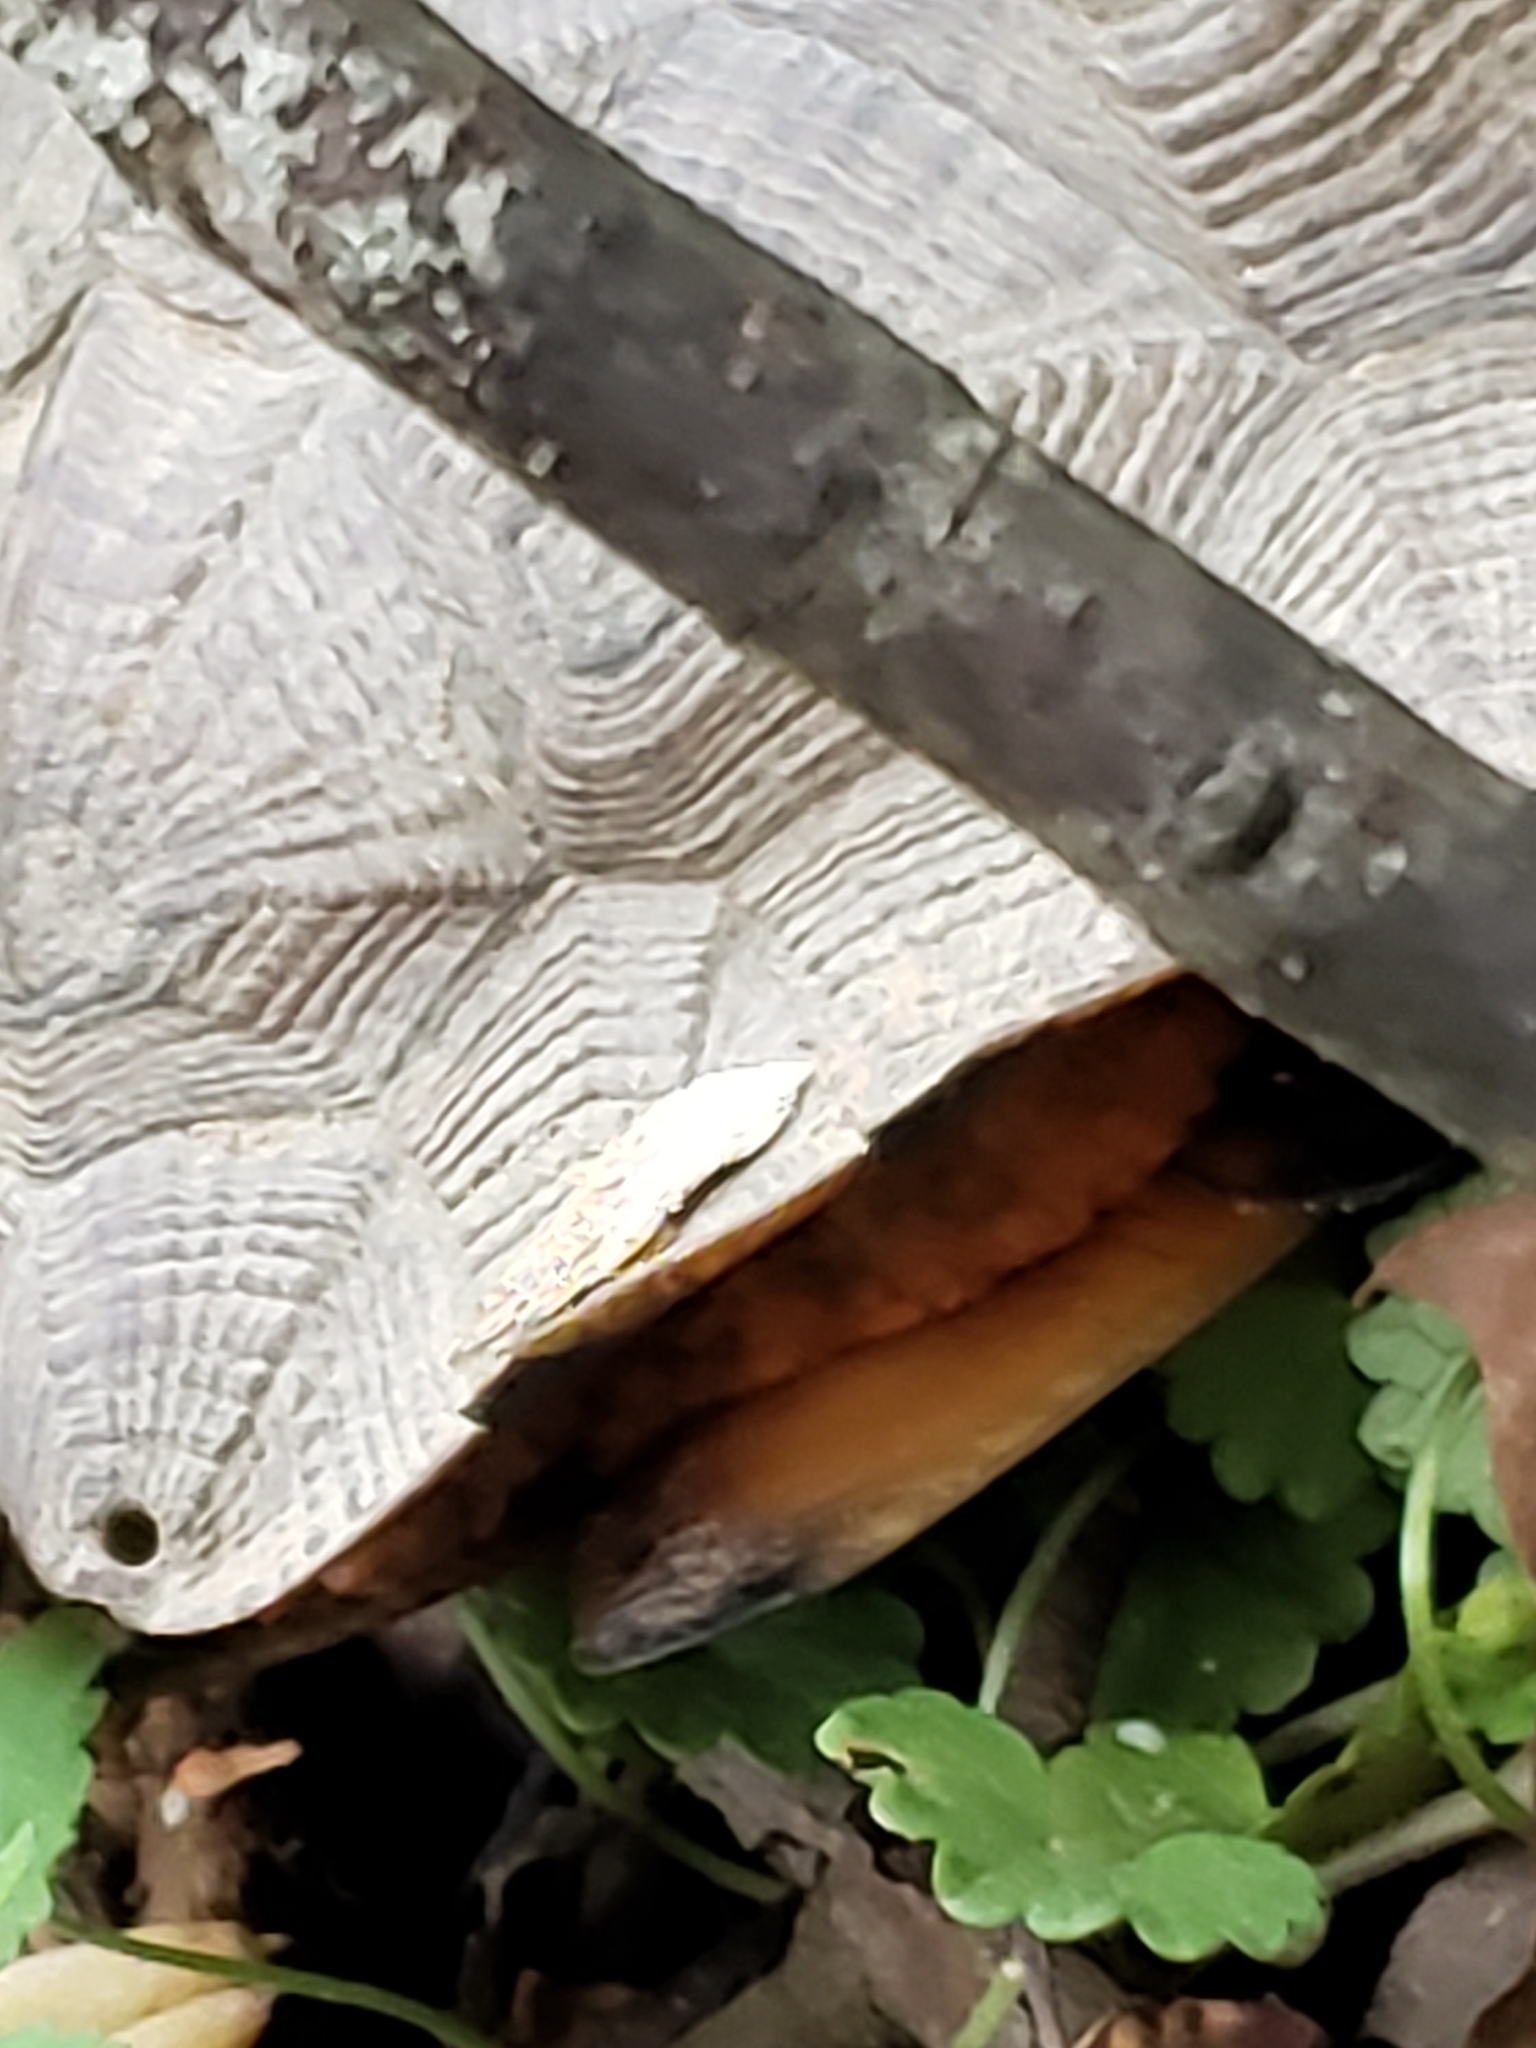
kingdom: Animalia
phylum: Chordata
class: Testudines
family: Emydidae
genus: Glyptemys
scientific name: Glyptemys insculpta
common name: Wood turtle
